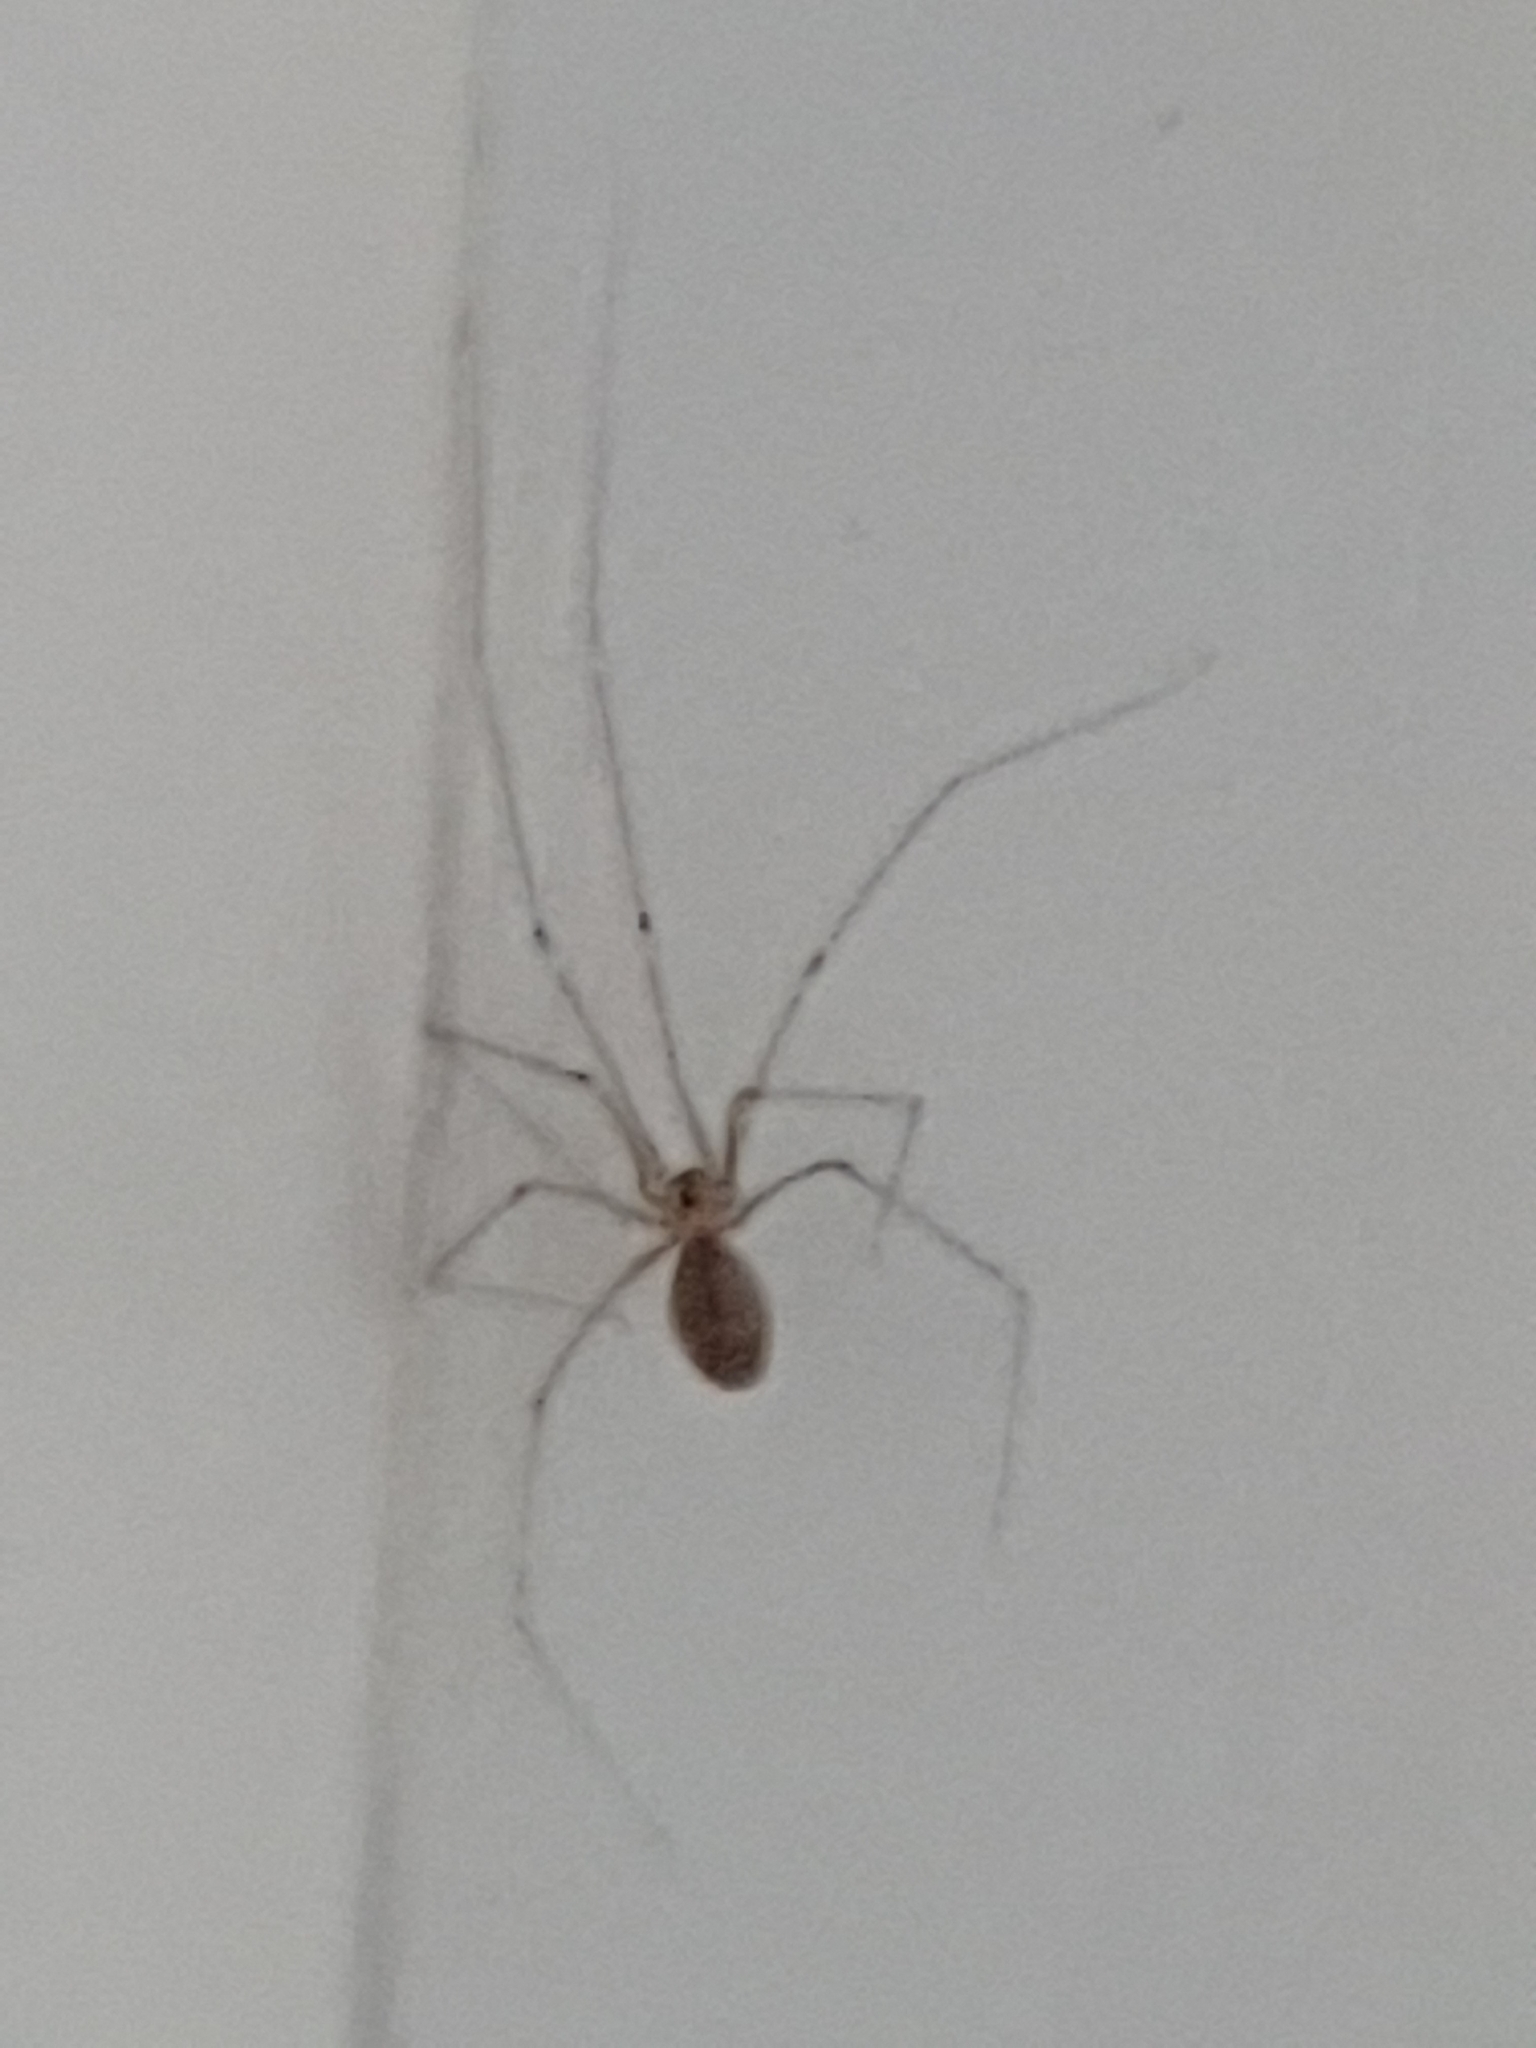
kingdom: Animalia
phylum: Arthropoda
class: Arachnida
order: Araneae
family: Pholcidae
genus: Pholcus
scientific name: Pholcus phalangioides
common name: Longbodied cellar spider
